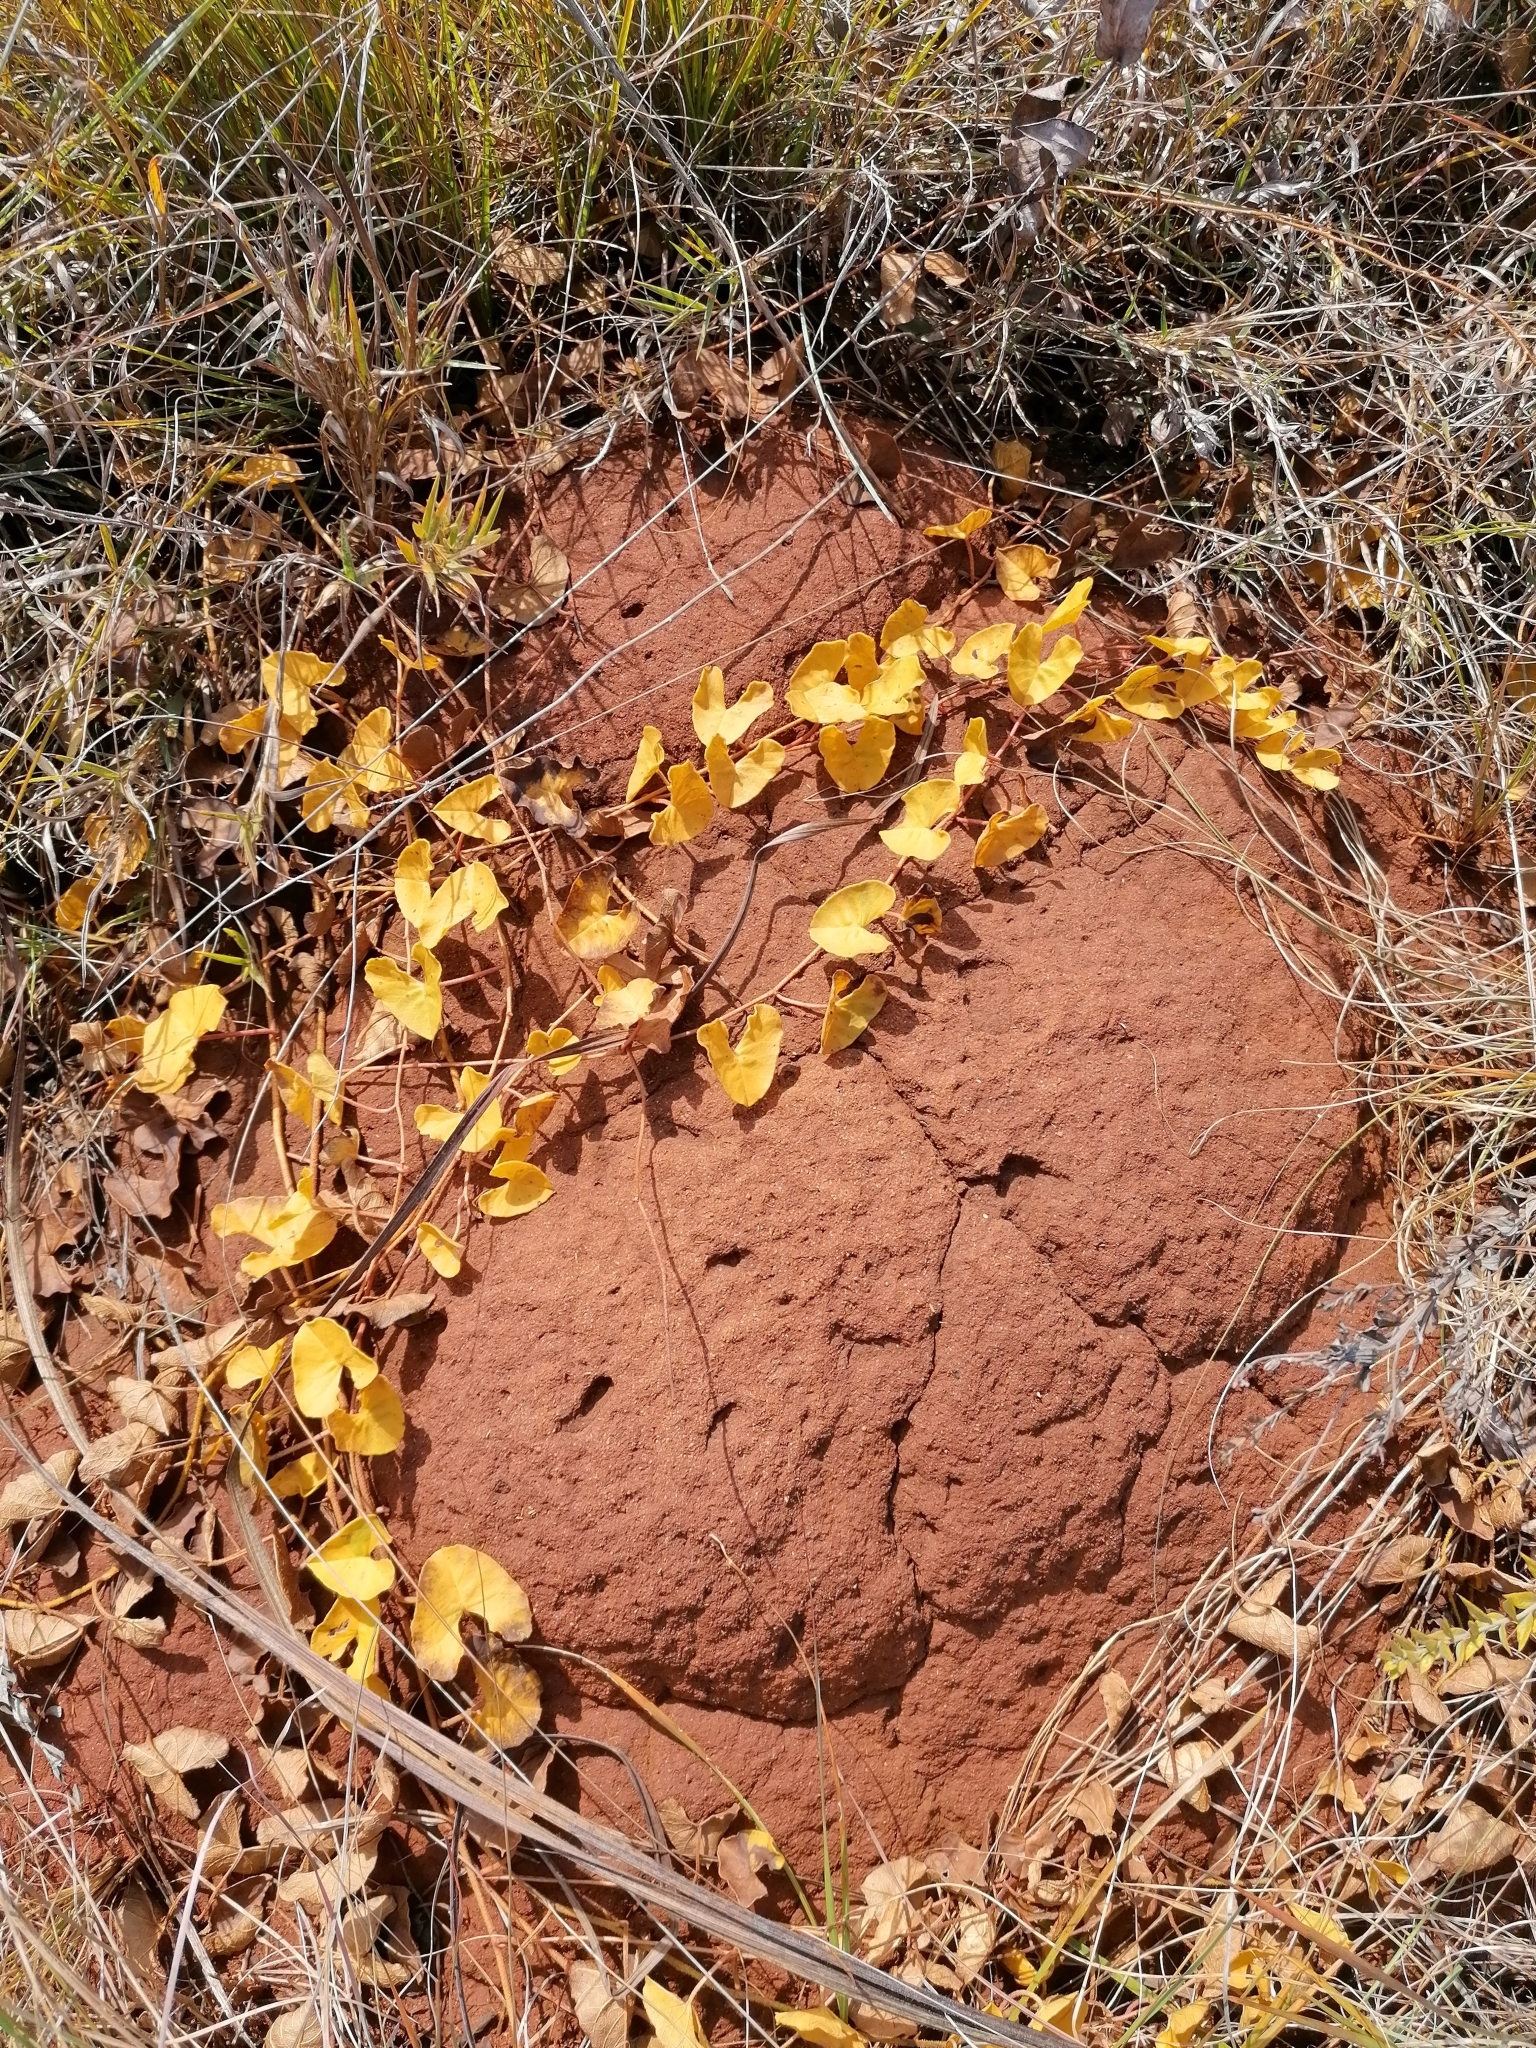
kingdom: Plantae
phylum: Tracheophyta
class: Magnoliopsida
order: Solanales
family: Convolvulaceae
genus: Ipomoea
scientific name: Ipomoea bathycolpos
